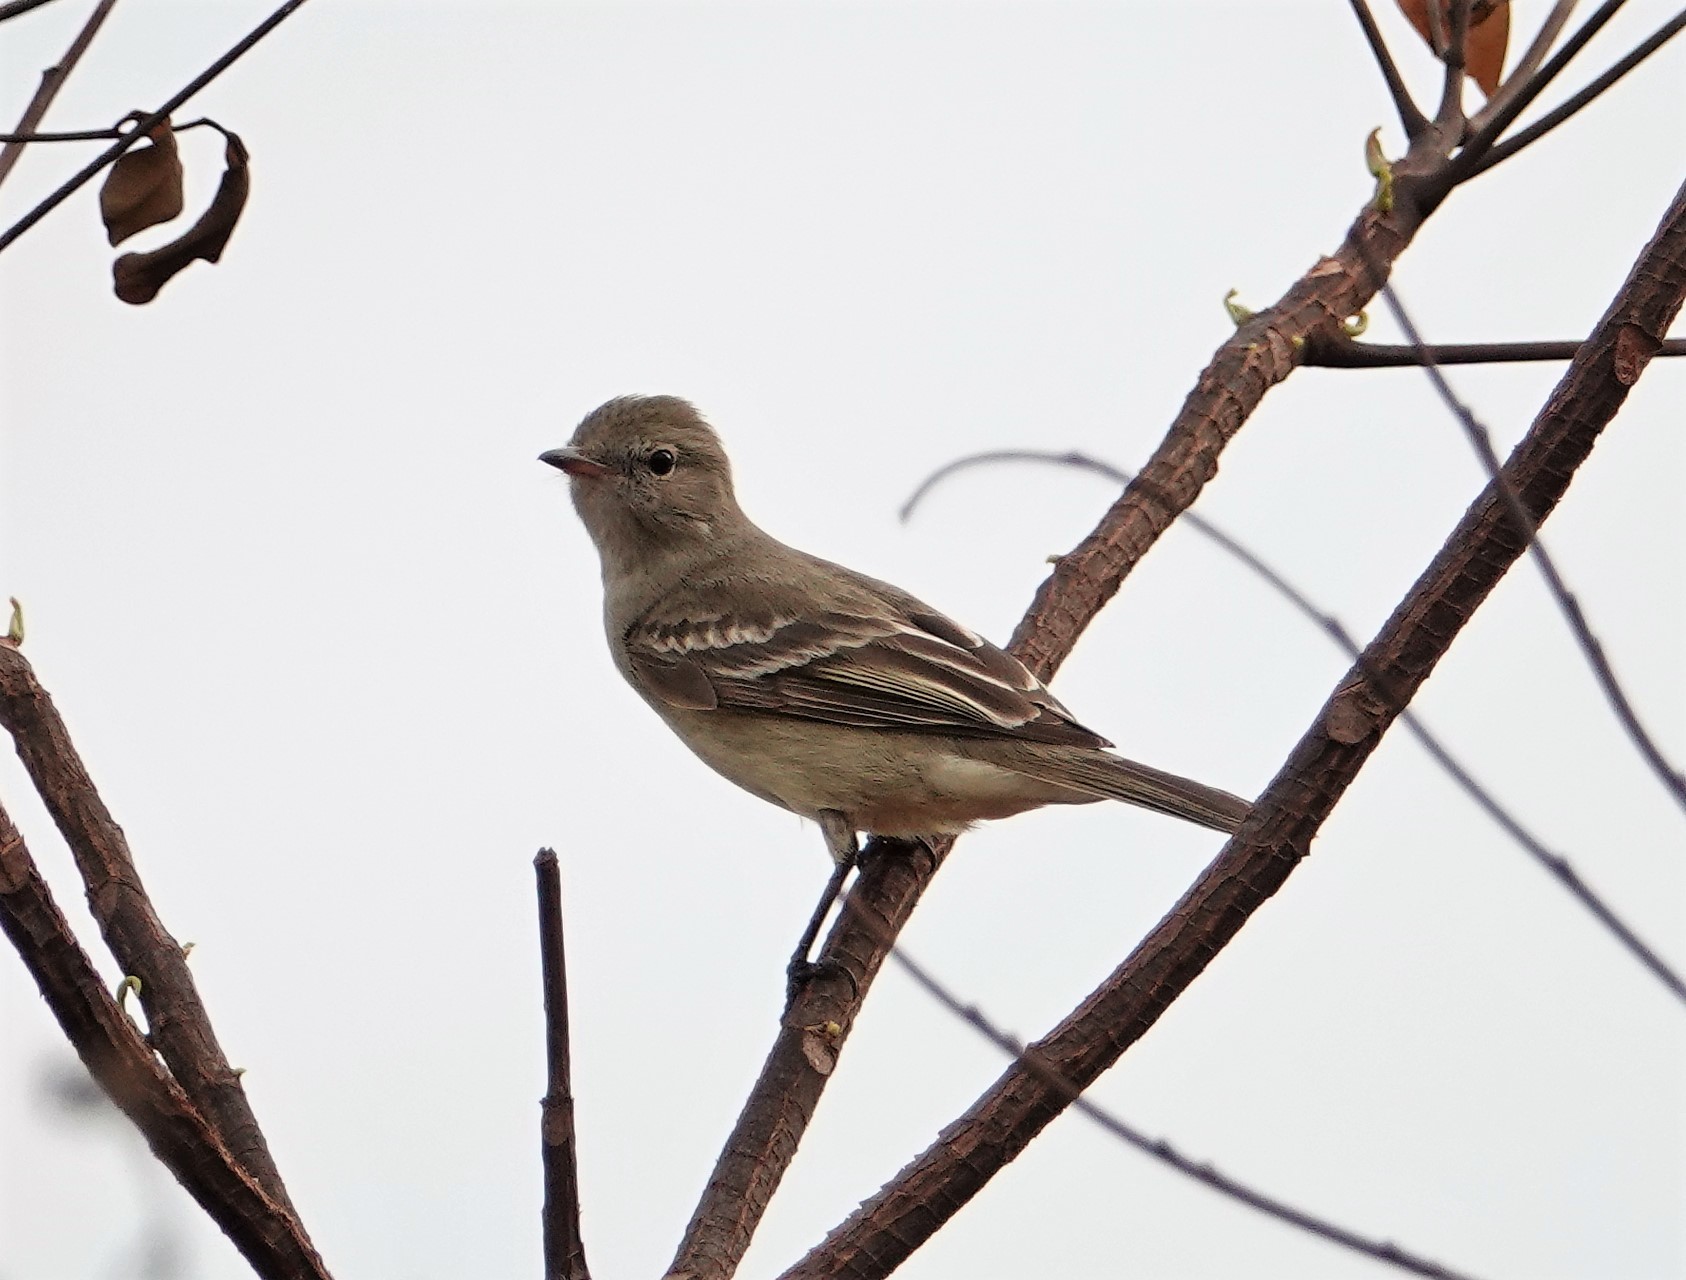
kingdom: Animalia
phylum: Chordata
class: Aves
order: Passeriformes
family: Tyrannidae
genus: Elaenia
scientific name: Elaenia chiriquensis
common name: Lesser elaenia
